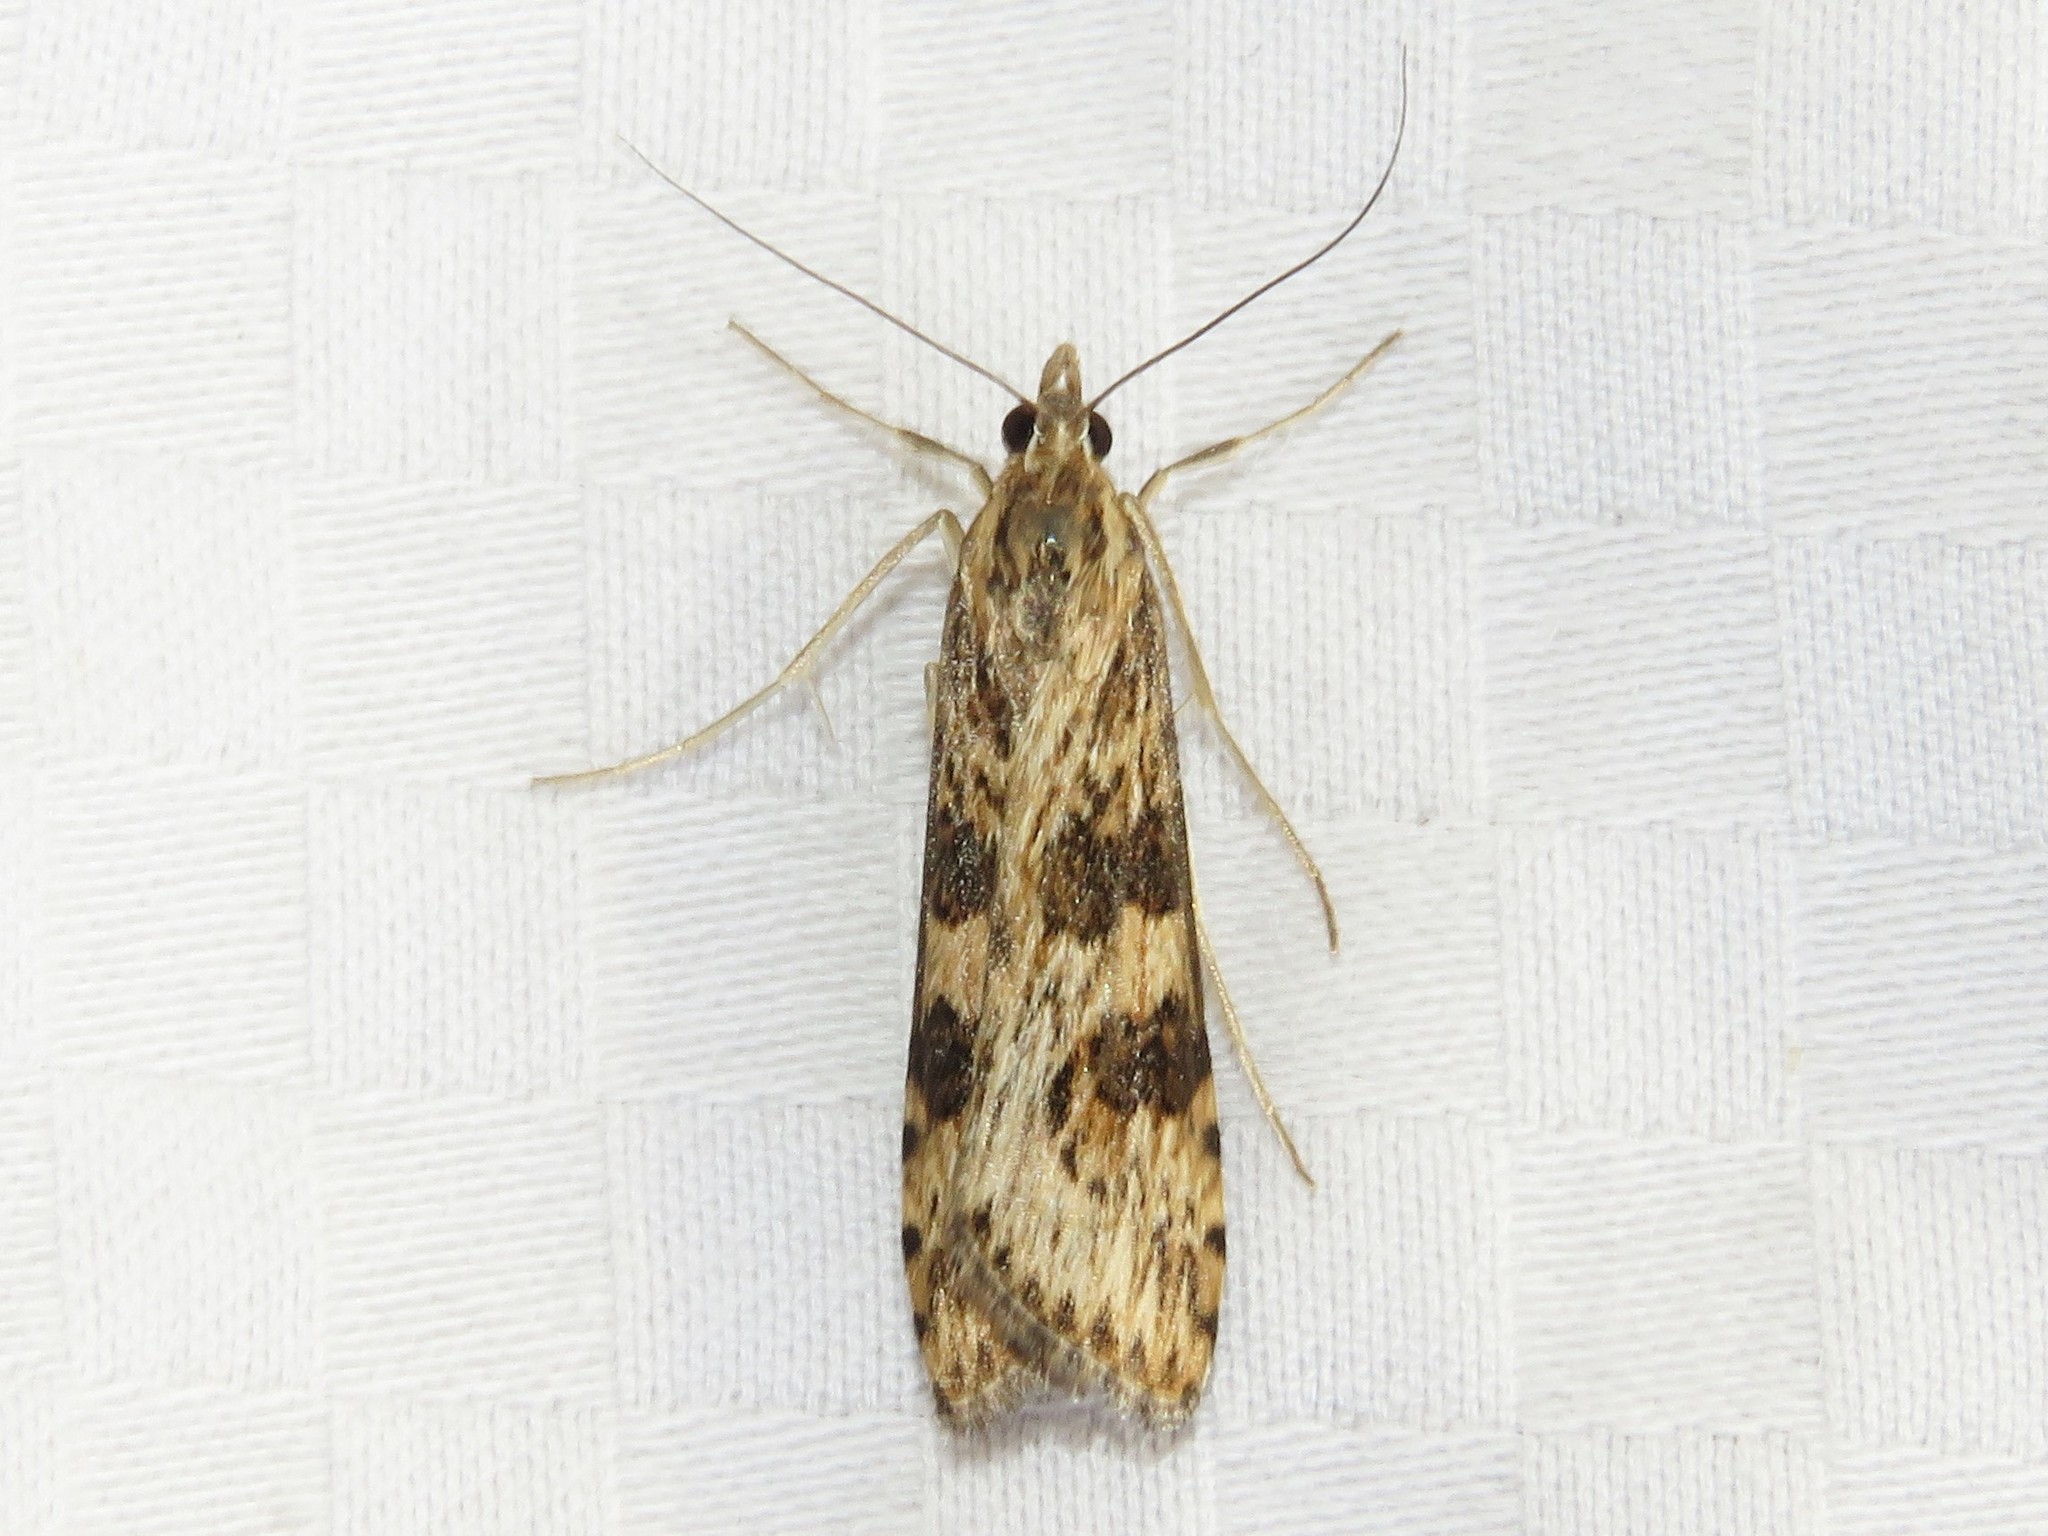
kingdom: Animalia
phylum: Arthropoda
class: Insecta
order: Lepidoptera
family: Crambidae
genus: Nomophila
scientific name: Nomophila nearctica
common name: American rush veneer
